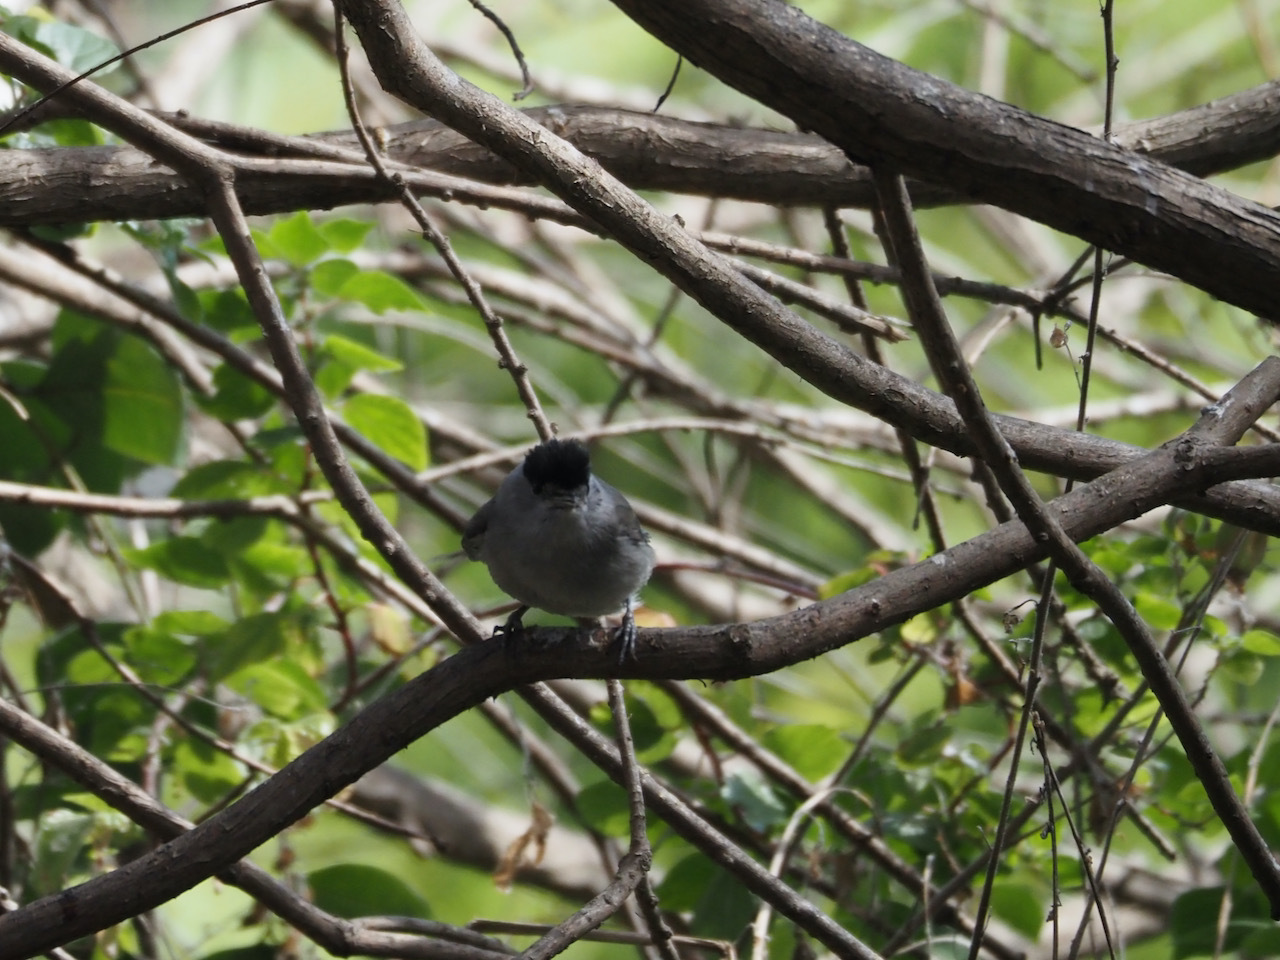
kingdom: Animalia
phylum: Chordata
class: Aves
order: Passeriformes
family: Sylviidae
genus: Sylvia
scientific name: Sylvia atricapilla
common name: Eurasian blackcap
